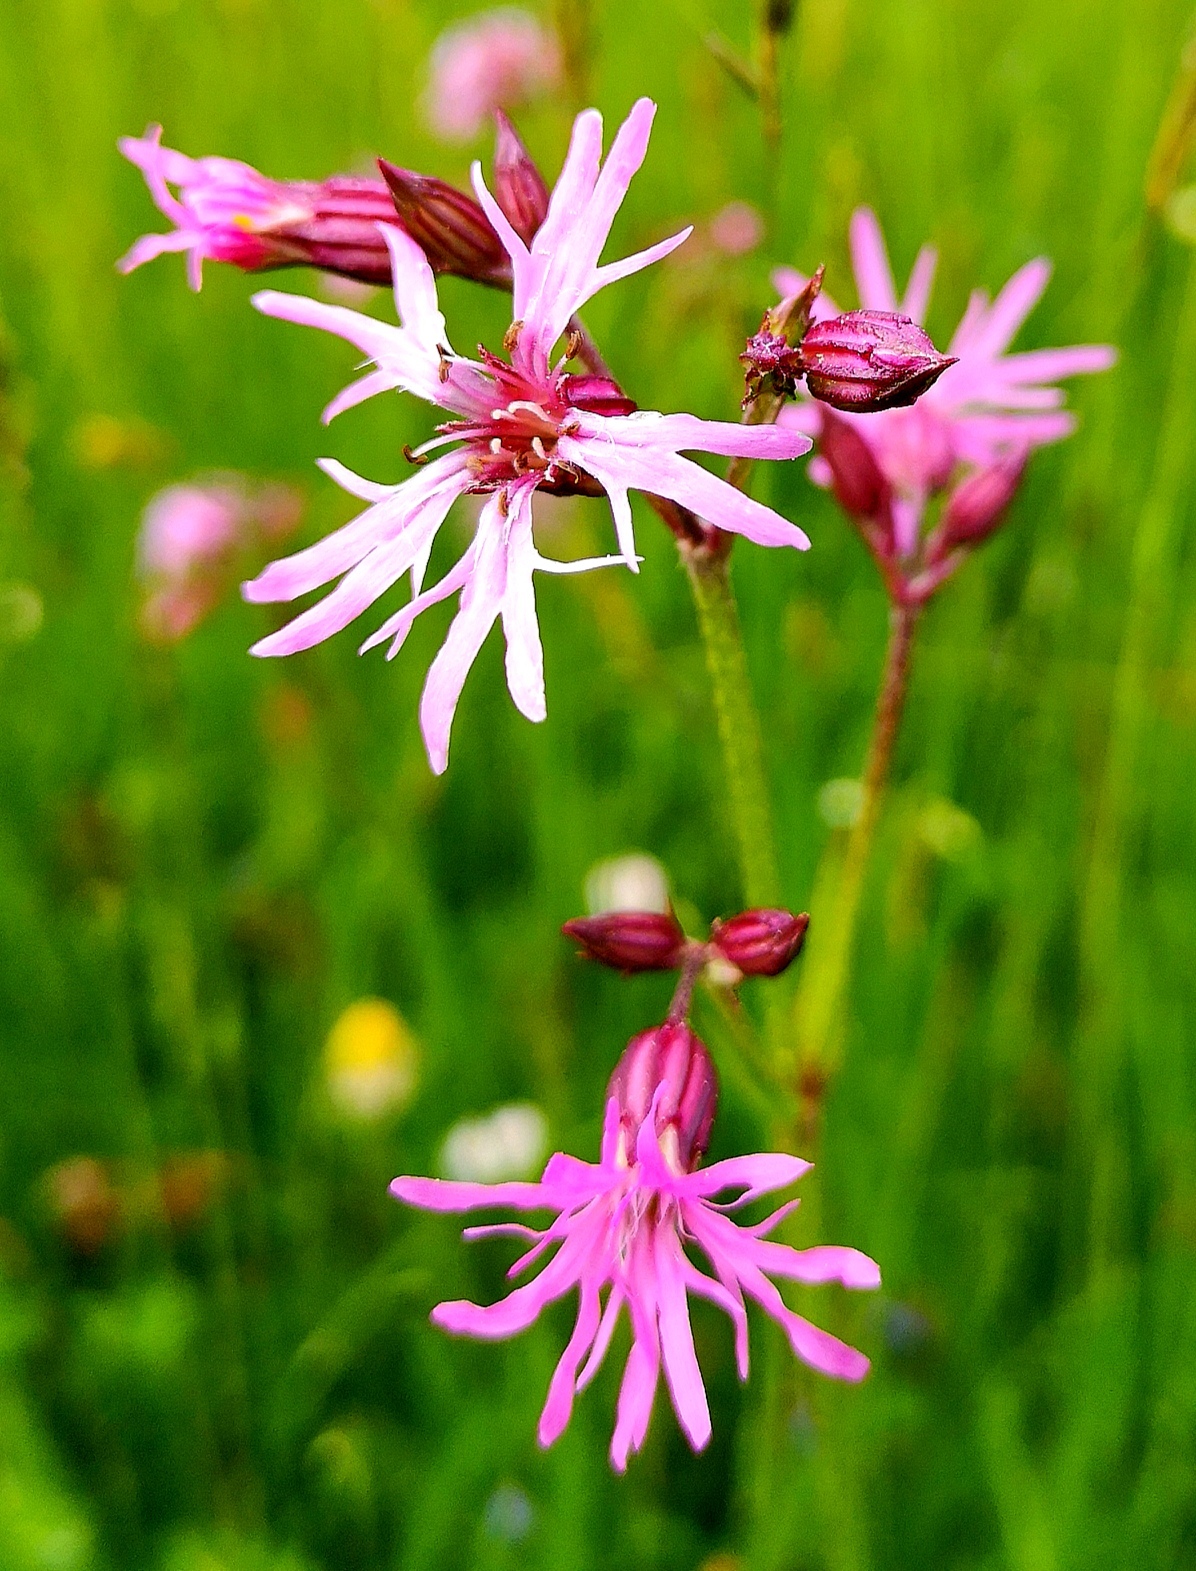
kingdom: Plantae
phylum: Tracheophyta
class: Magnoliopsida
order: Caryophyllales
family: Caryophyllaceae
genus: Silene
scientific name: Silene flos-cuculi
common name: Ragged-robin
